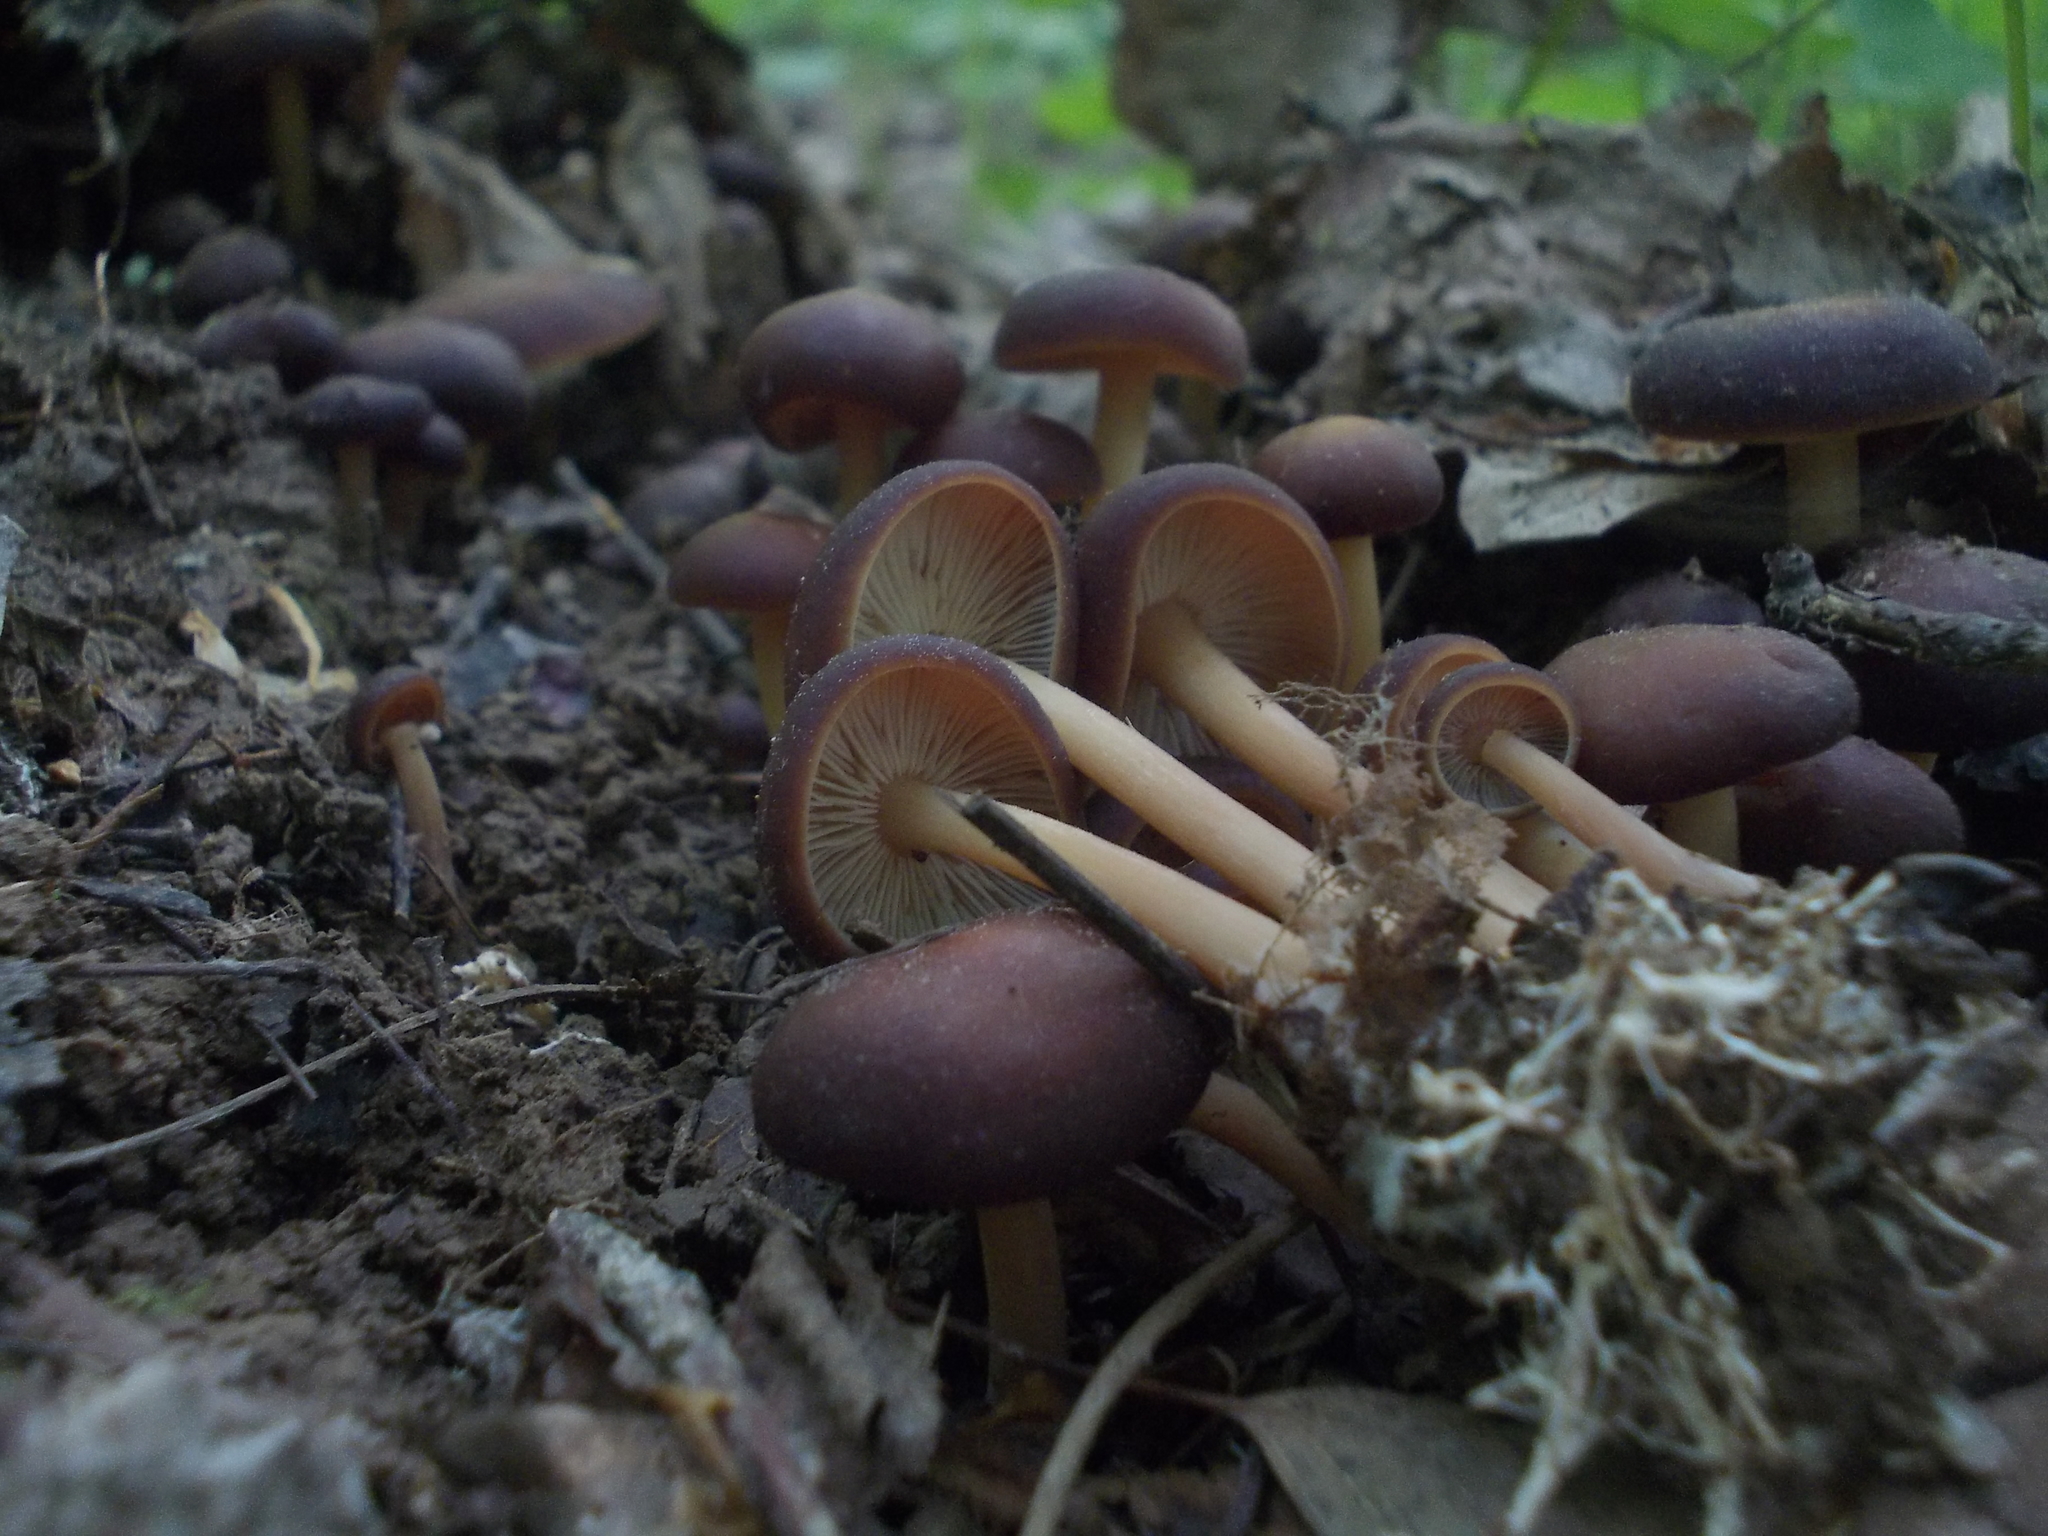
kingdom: Fungi
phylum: Basidiomycota
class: Agaricomycetes
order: Agaricales
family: Omphalotaceae
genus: Gymnopus
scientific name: Gymnopus ocior
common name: Spring toughshank
